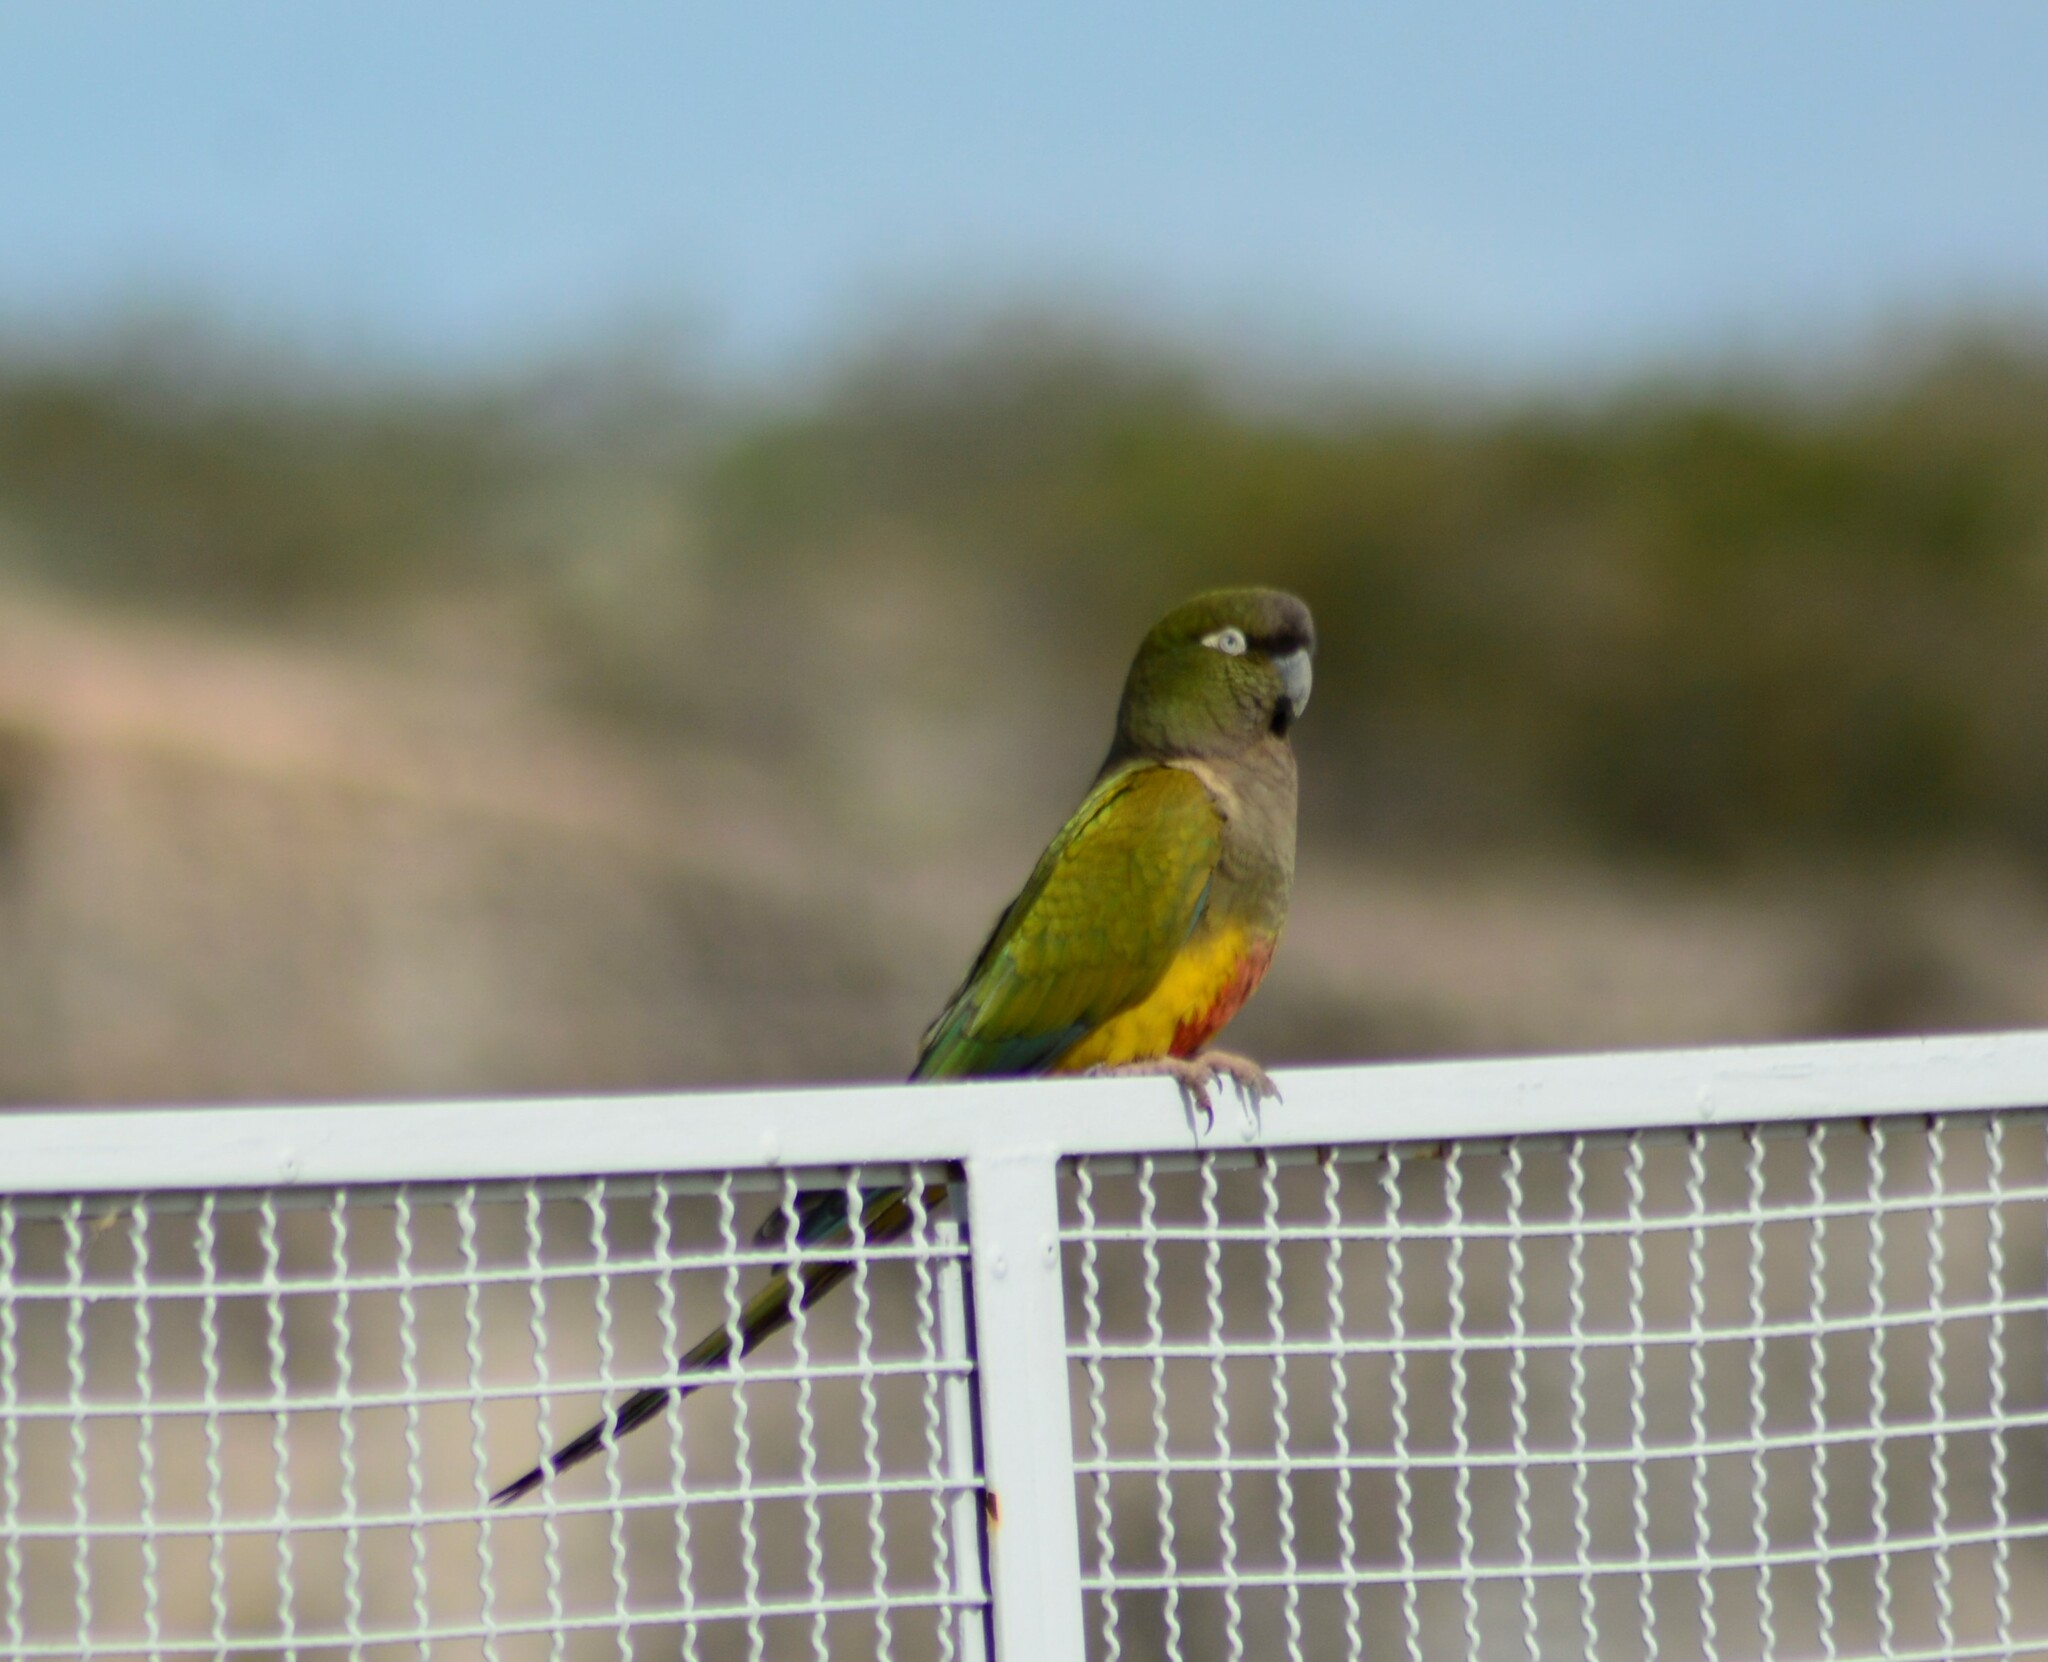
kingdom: Animalia
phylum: Chordata
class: Aves
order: Psittaciformes
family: Psittacidae
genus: Cyanoliseus
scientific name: Cyanoliseus patagonus
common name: Burrowing parrot
